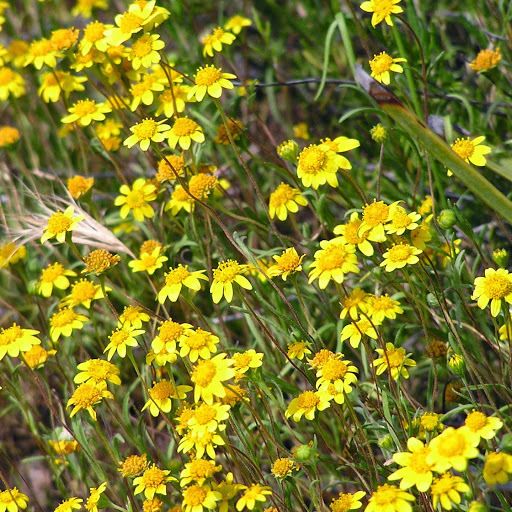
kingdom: Plantae
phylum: Tracheophyta
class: Magnoliopsida
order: Asterales
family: Asteraceae
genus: Lasthenia
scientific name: Lasthenia
